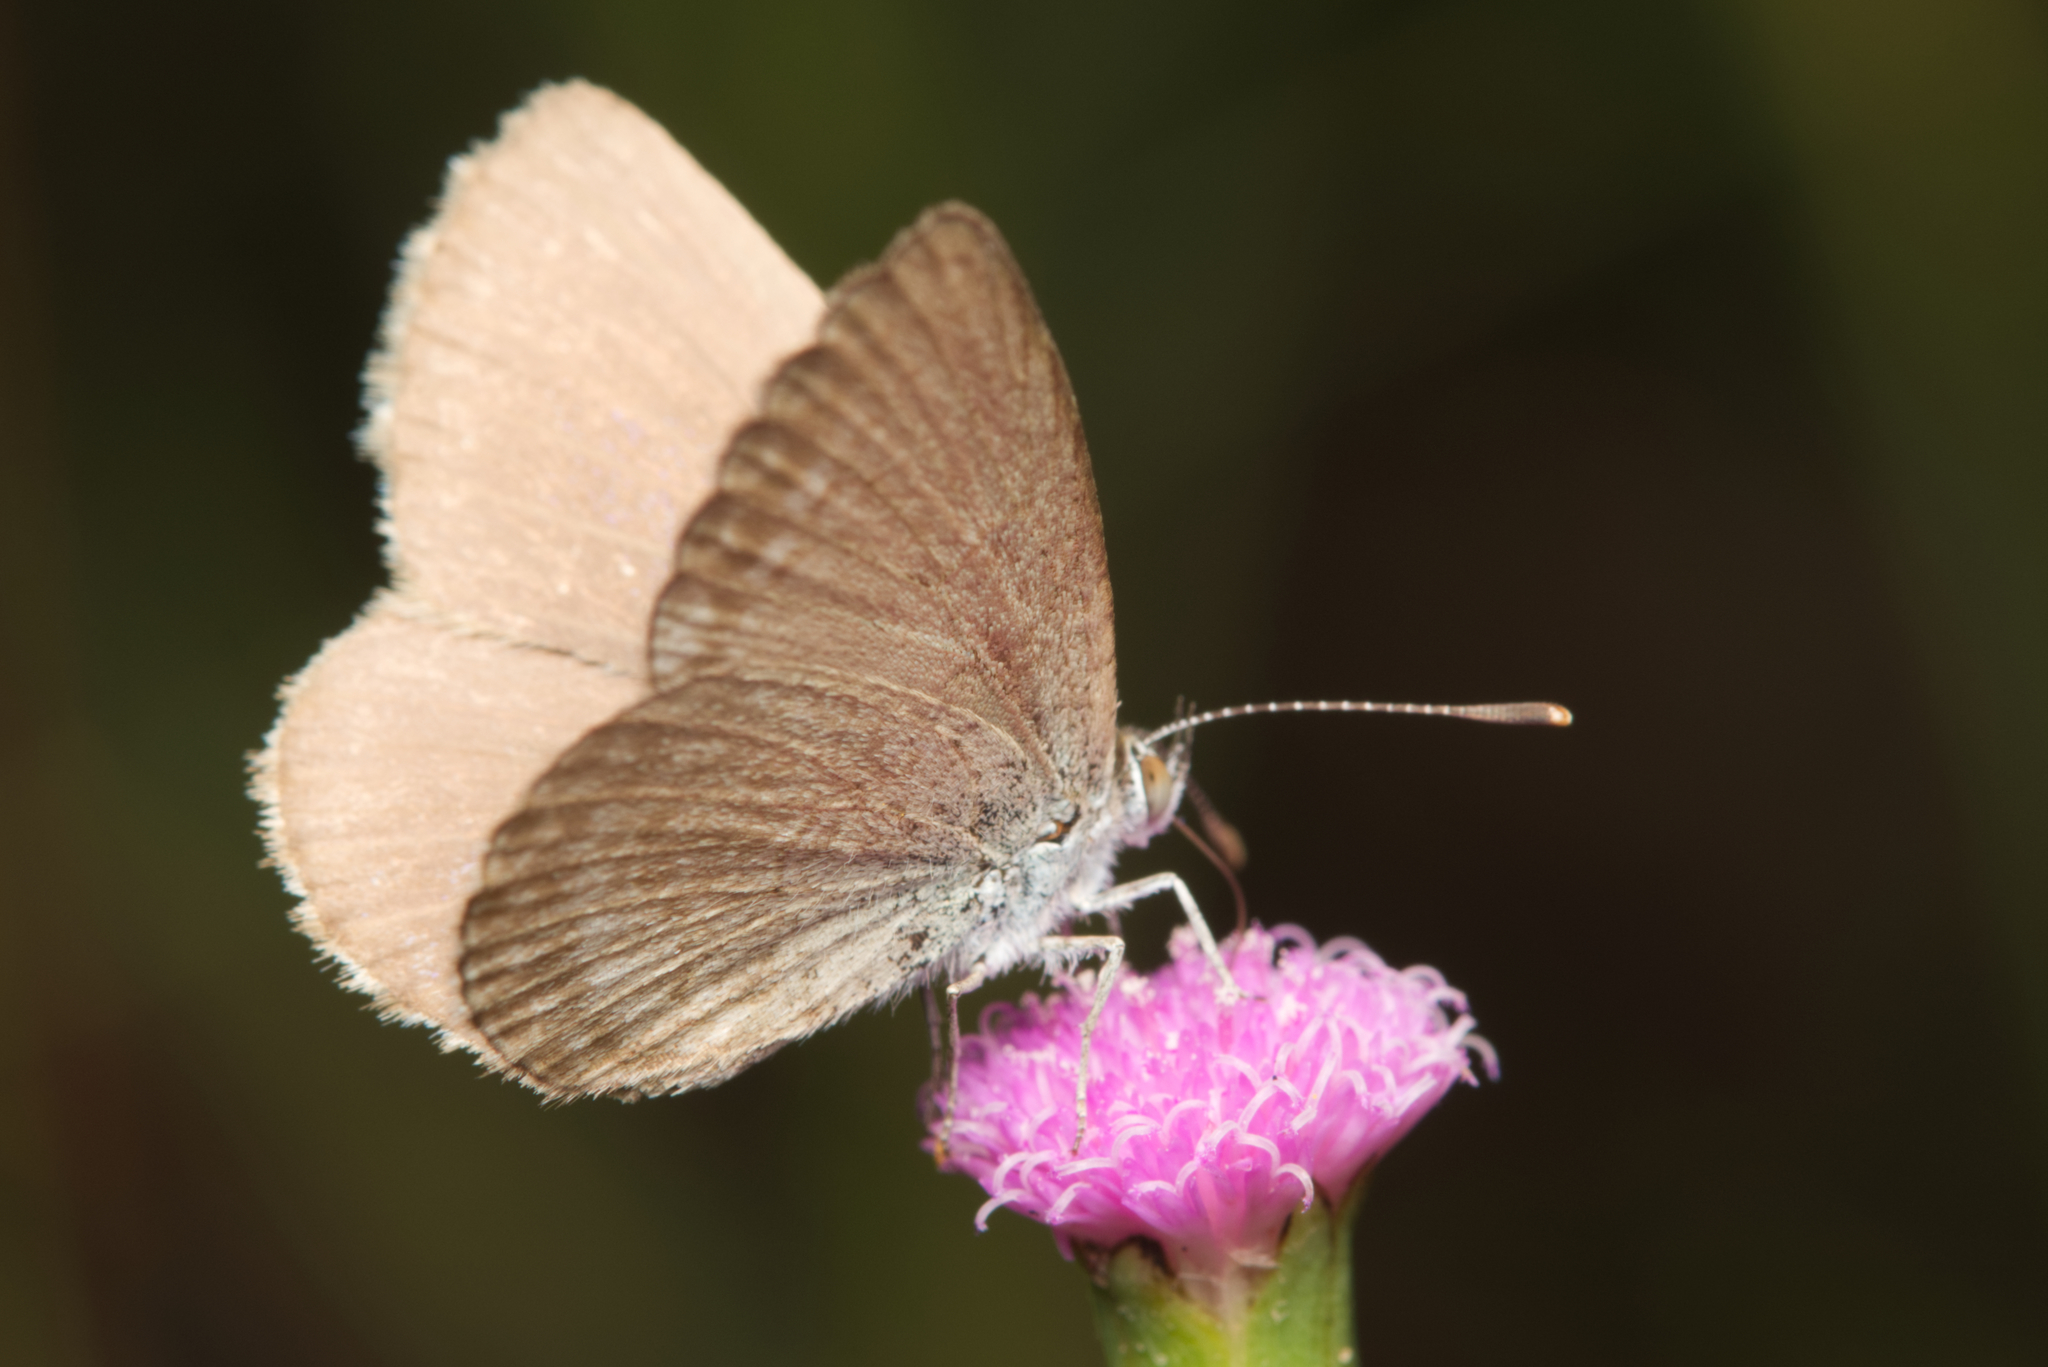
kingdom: Animalia
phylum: Arthropoda
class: Insecta
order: Lepidoptera
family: Lycaenidae
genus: Zizina
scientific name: Zizina labradus
